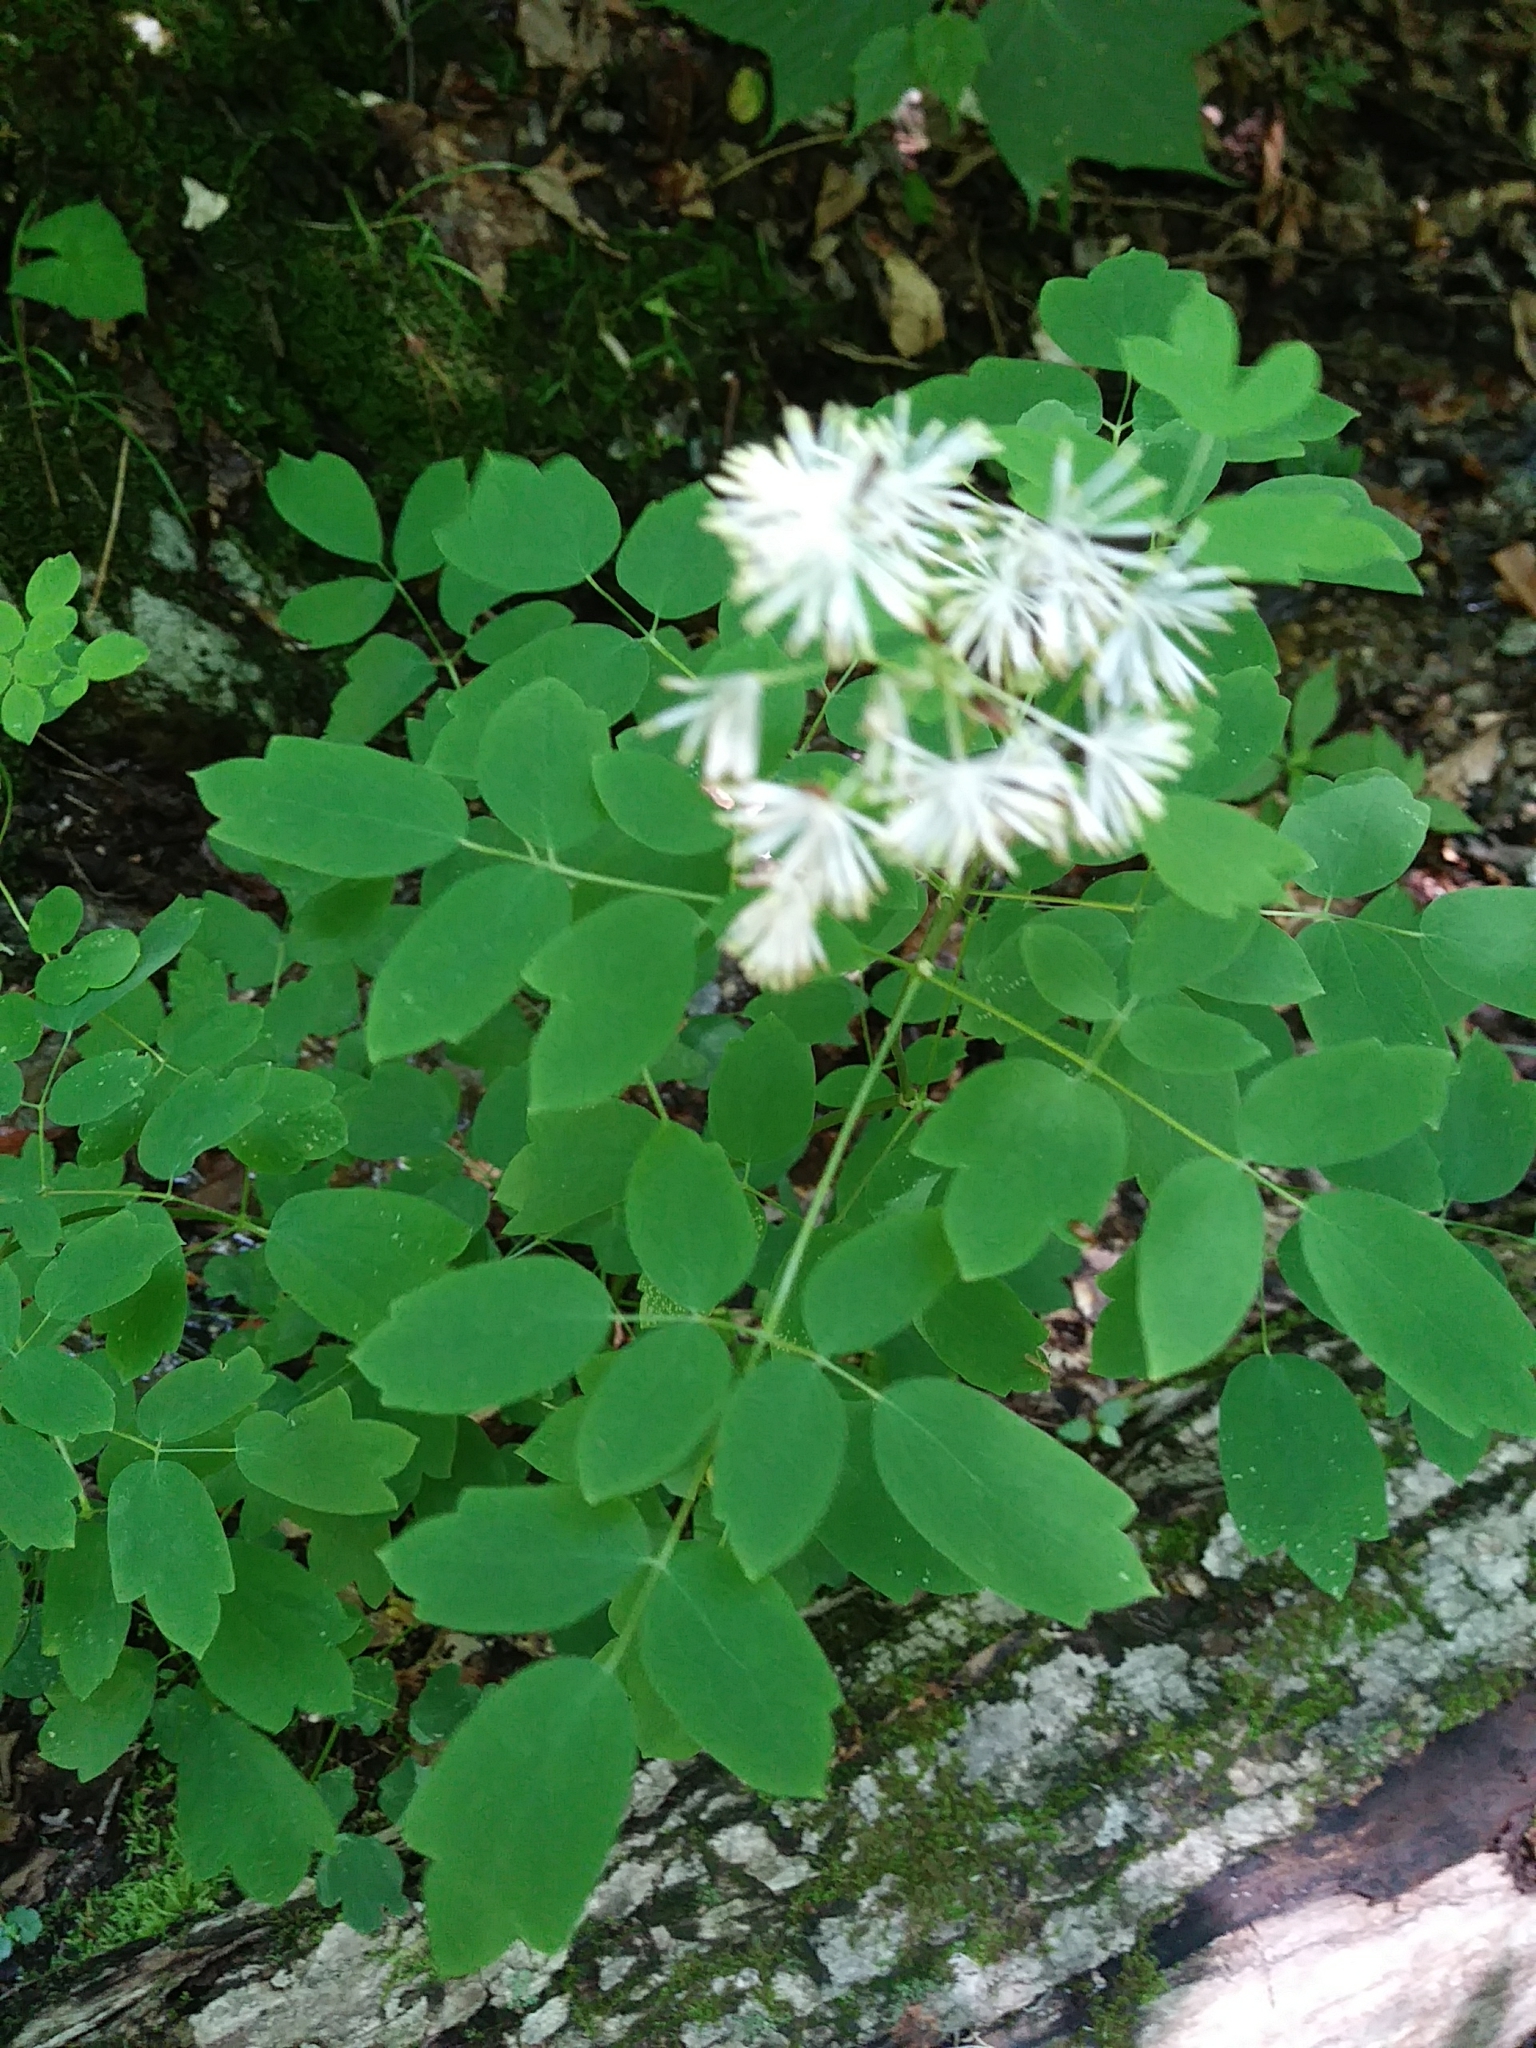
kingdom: Plantae
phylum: Tracheophyta
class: Magnoliopsida
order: Ranunculales
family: Ranunculaceae
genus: Thalictrum
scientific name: Thalictrum pubescens
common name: King-of-the-meadow
